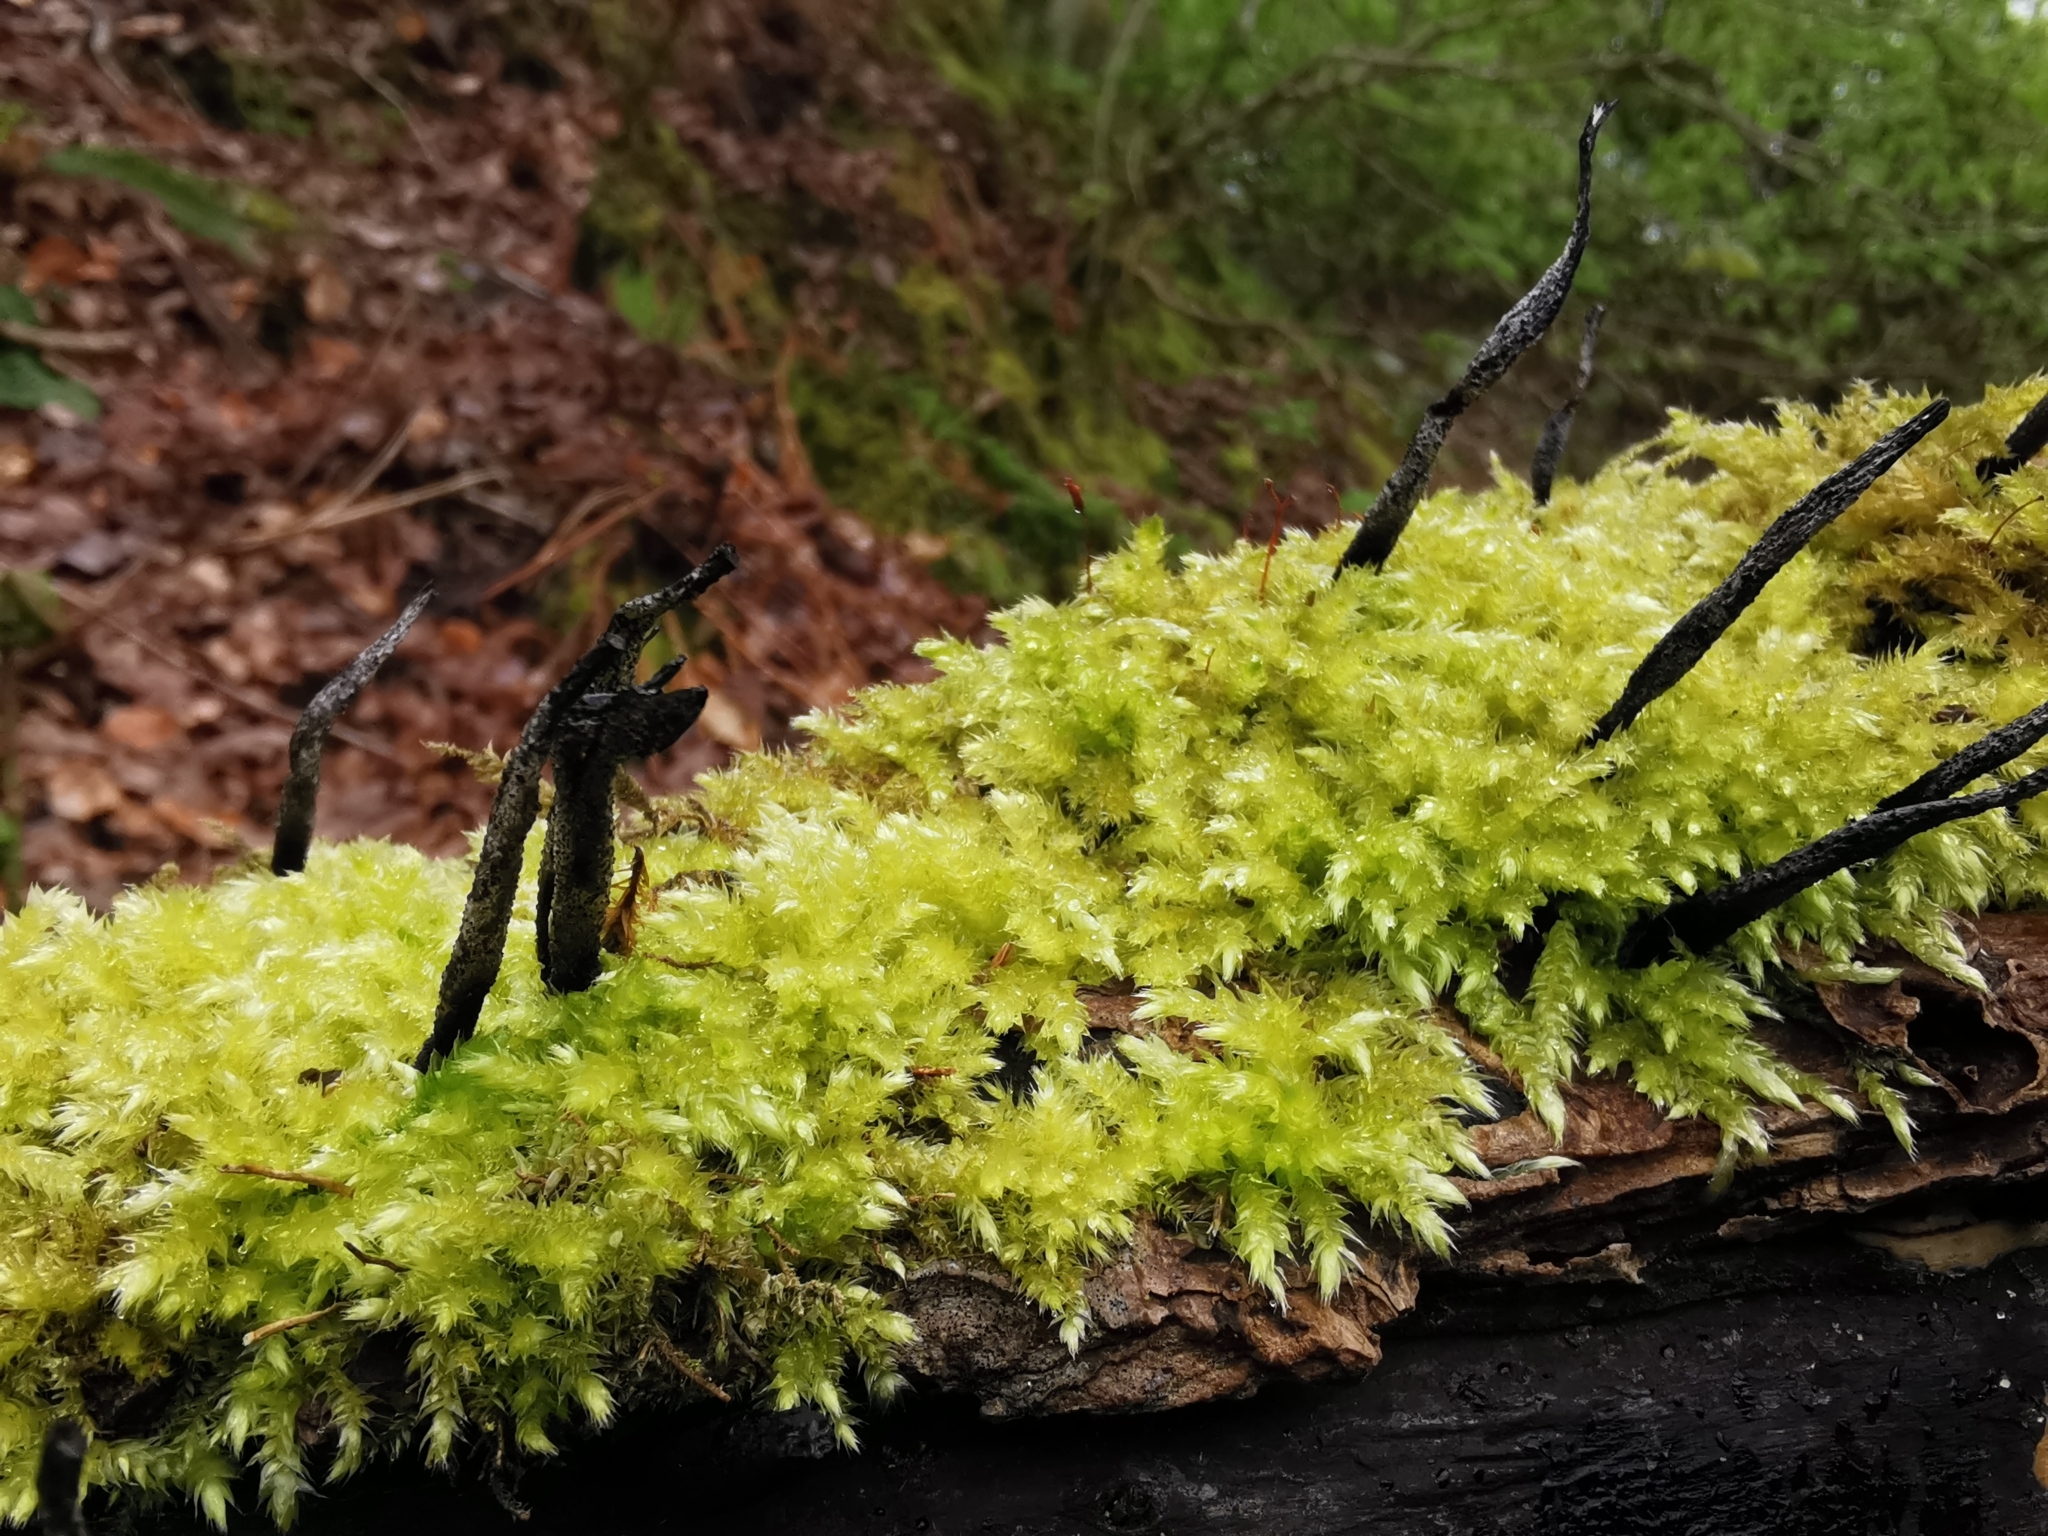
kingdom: Fungi
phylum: Ascomycota
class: Sordariomycetes
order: Xylariales
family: Xylariaceae
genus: Xylaria
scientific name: Xylaria hypoxylon
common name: Candle-snuff fungus
